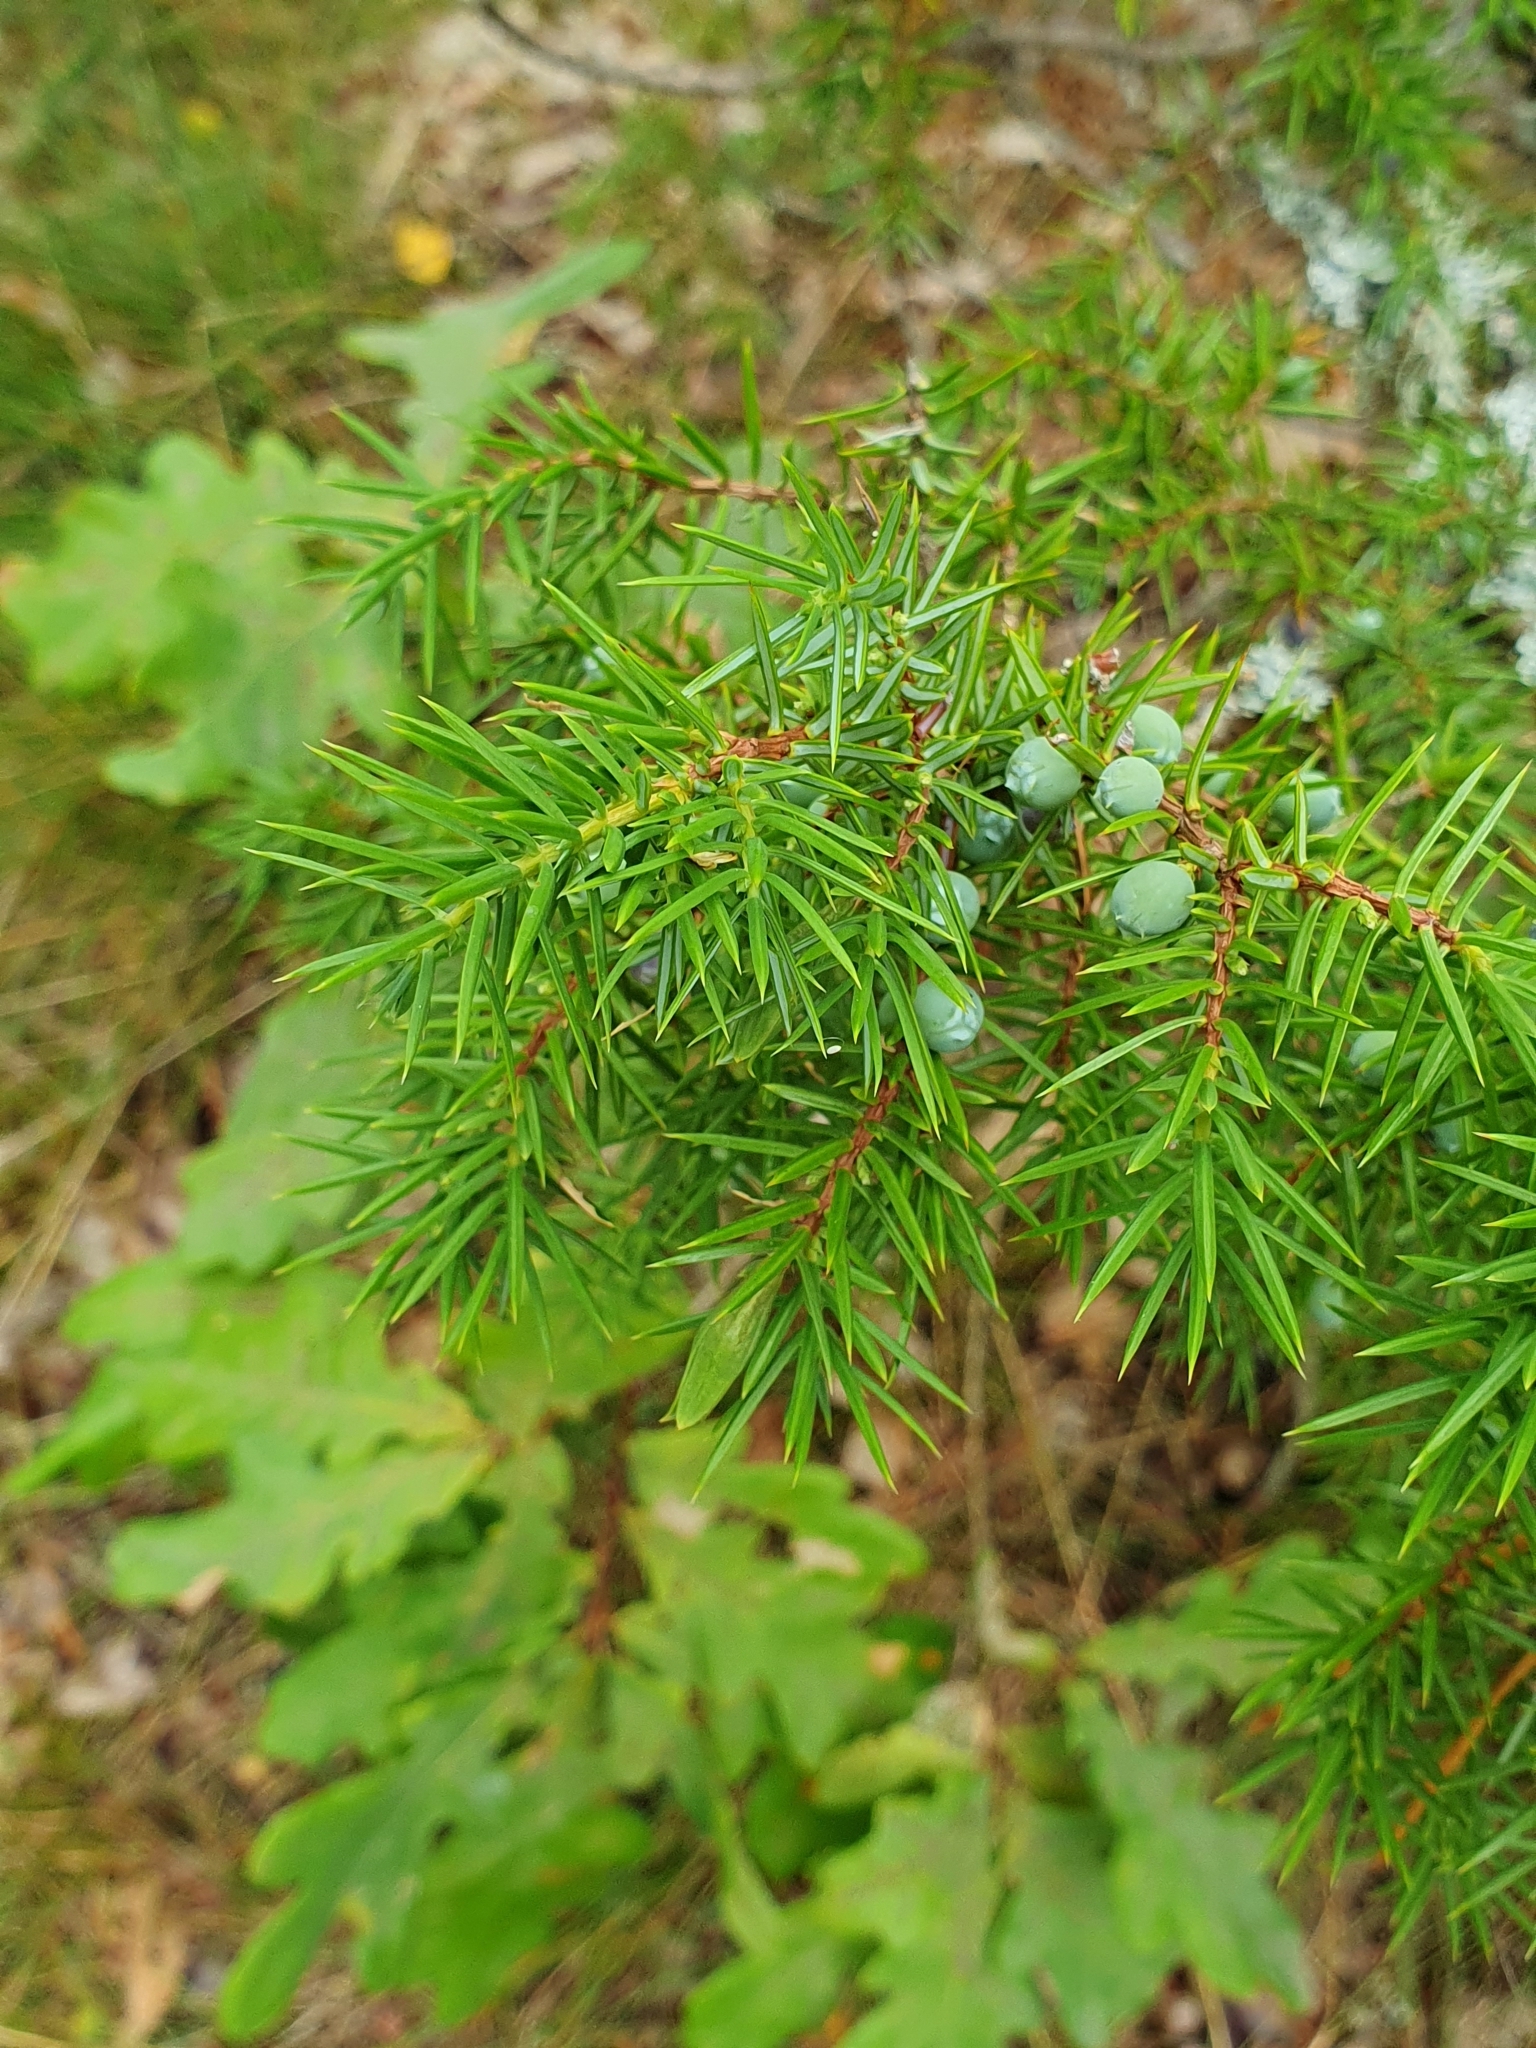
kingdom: Plantae
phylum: Tracheophyta
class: Pinopsida
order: Pinales
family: Cupressaceae
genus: Juniperus
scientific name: Juniperus communis
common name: Common juniper
